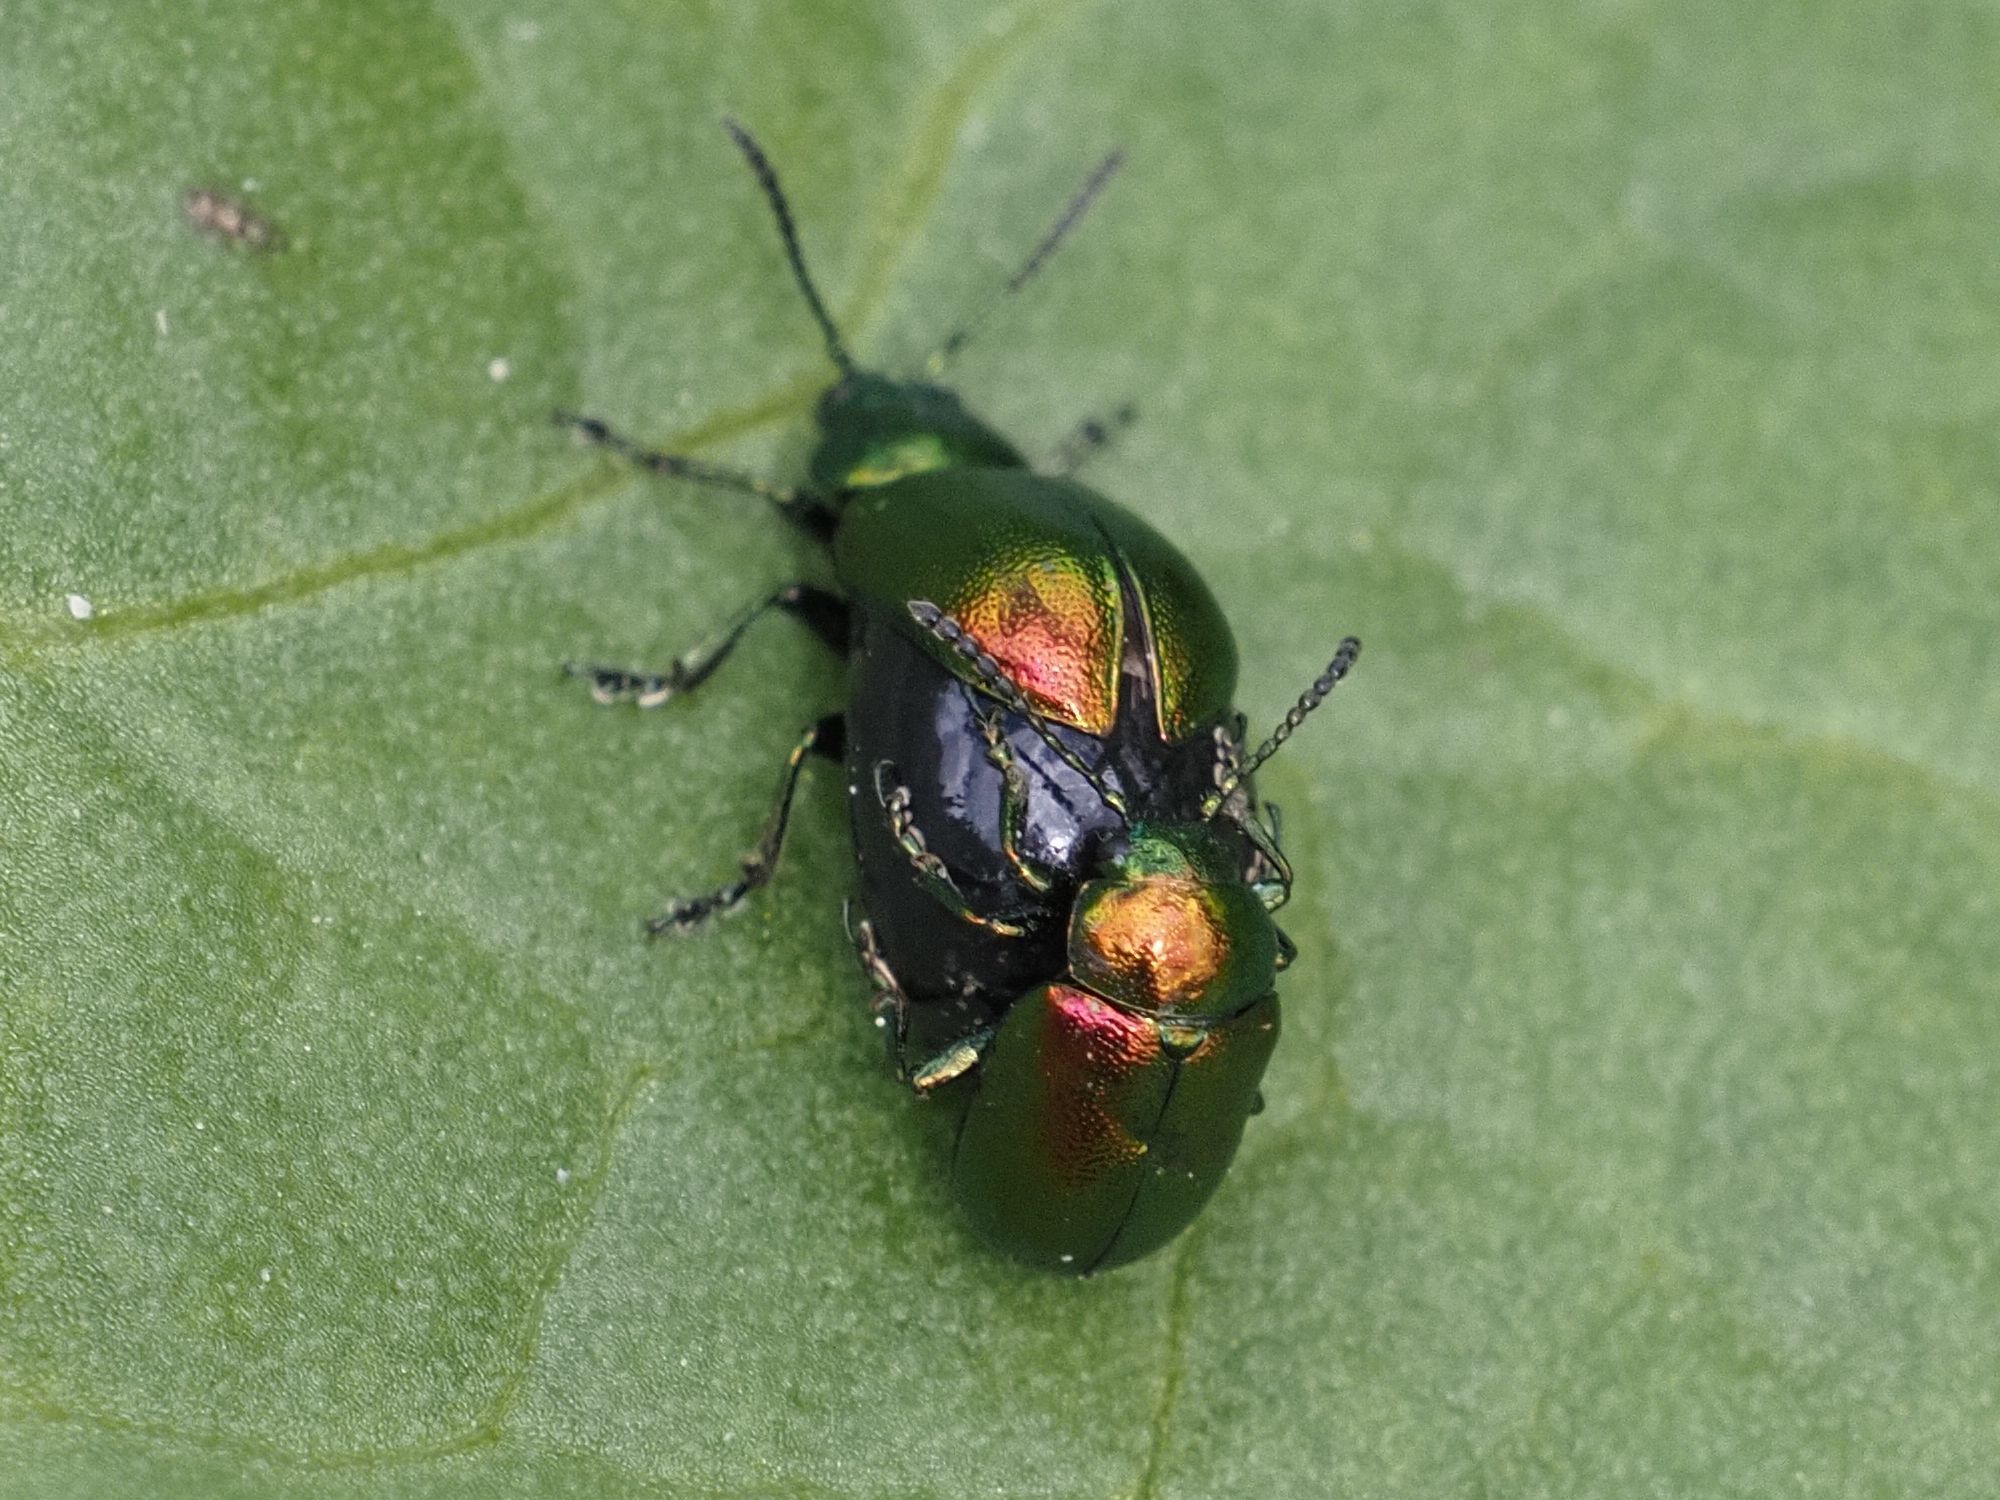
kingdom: Animalia
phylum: Arthropoda
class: Insecta
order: Coleoptera
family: Chrysomelidae
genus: Gastrophysa
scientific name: Gastrophysa viridula
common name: Green dock beetle
